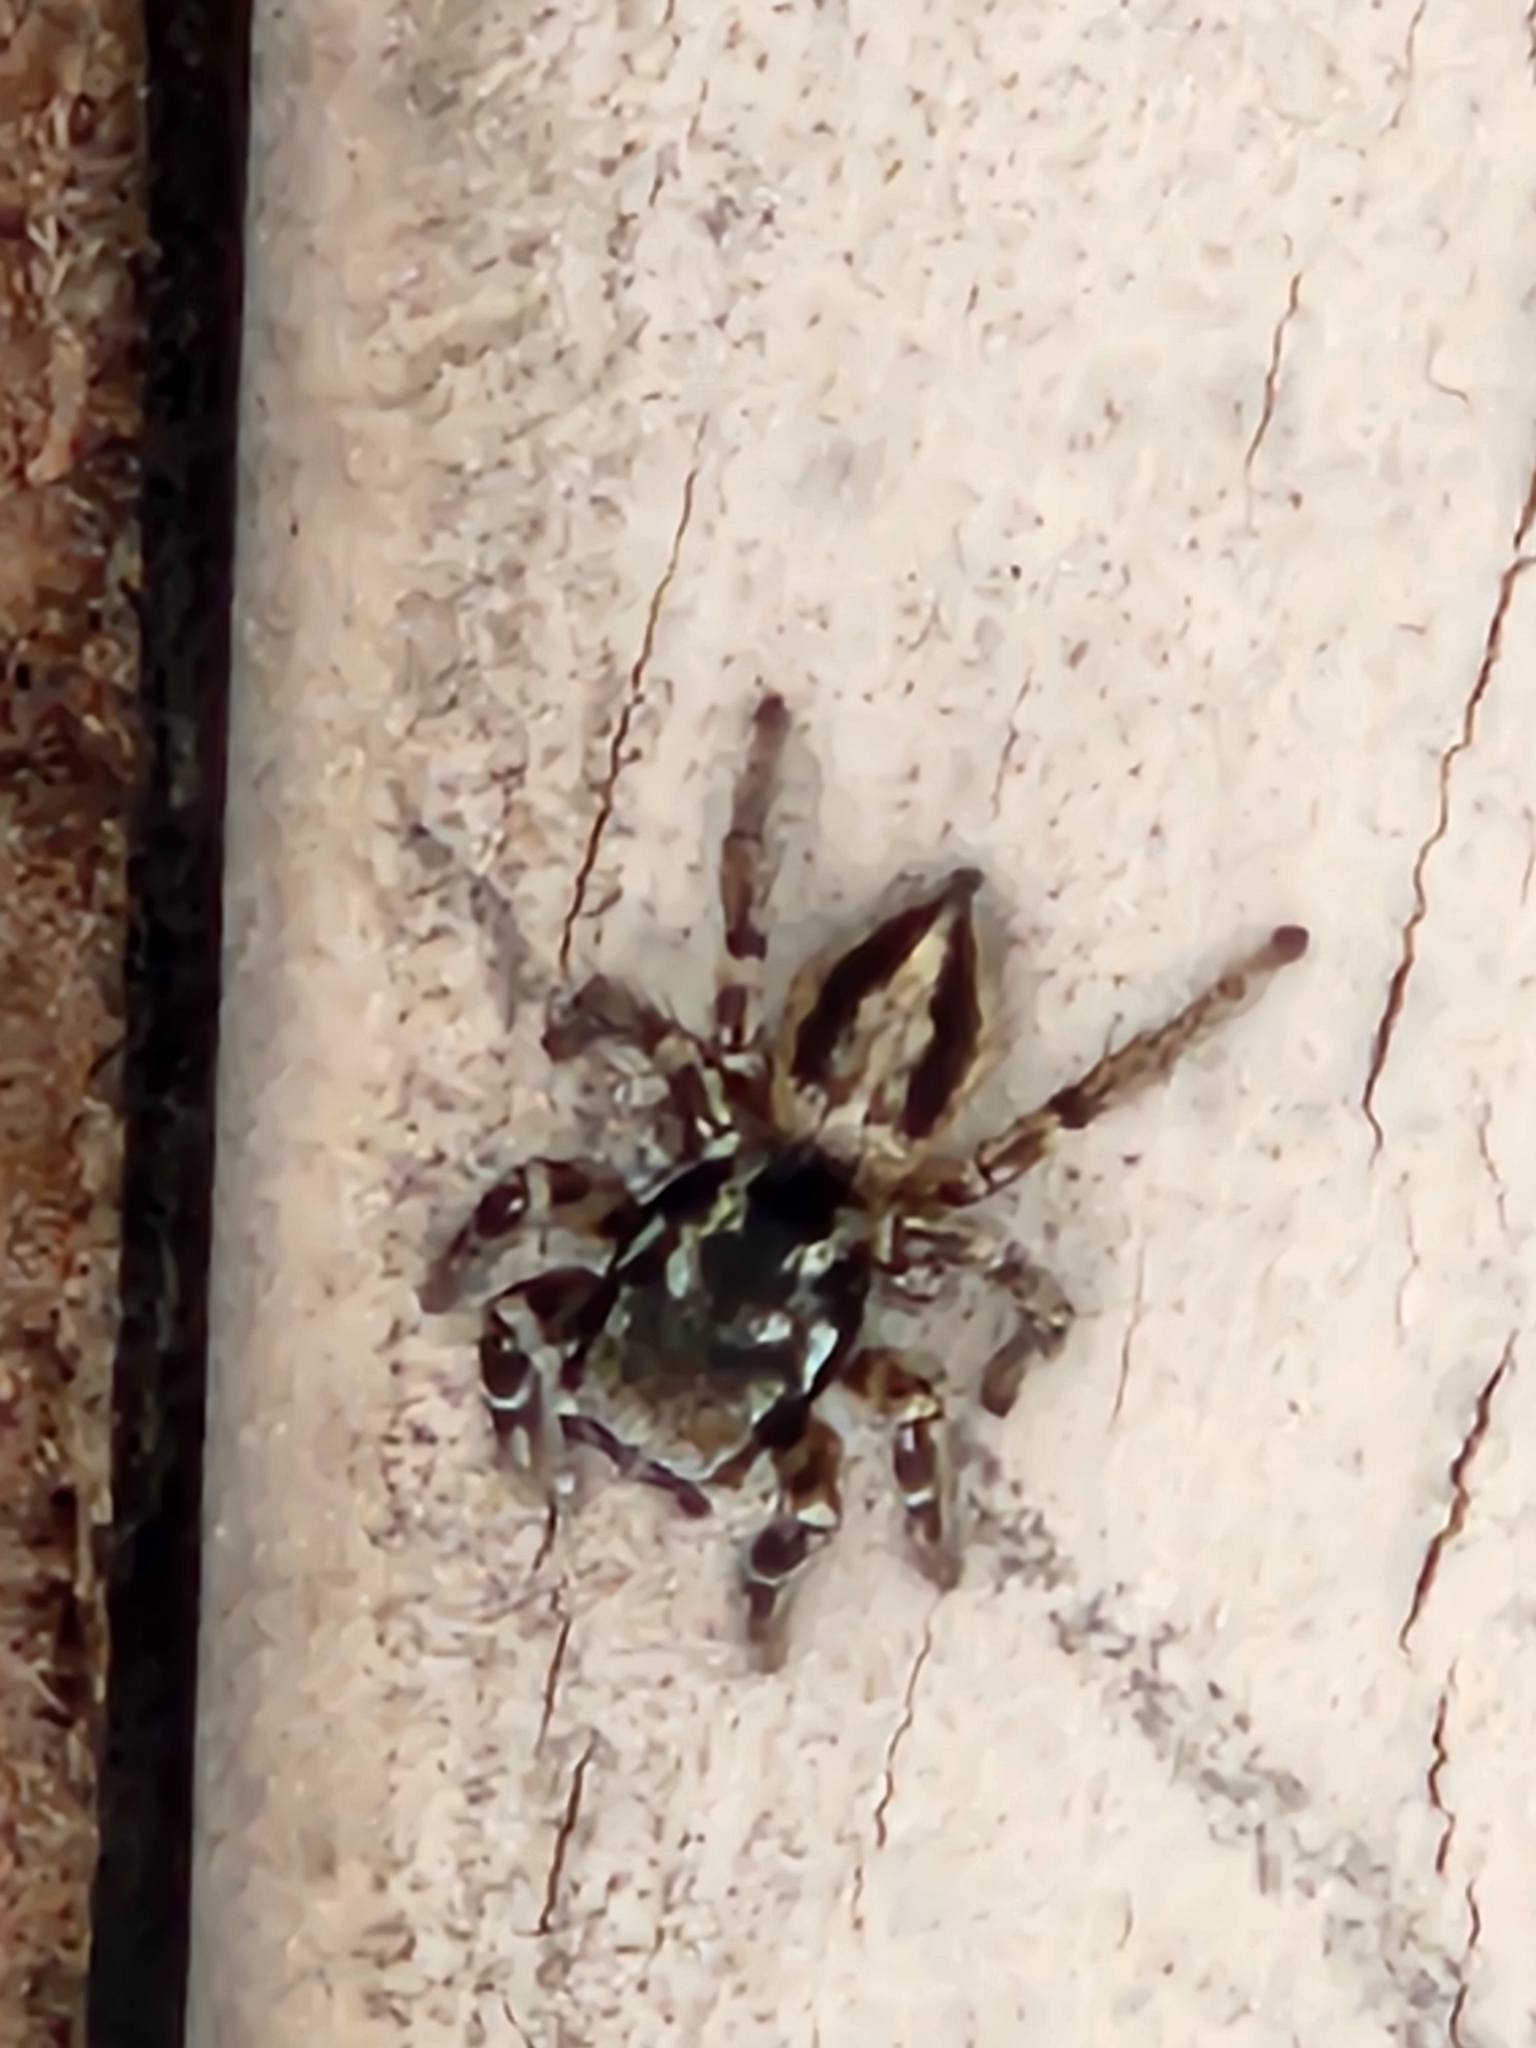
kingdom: Animalia
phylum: Arthropoda
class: Arachnida
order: Araneae
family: Salticidae
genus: Habronattus
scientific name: Habronattus sugillatus
